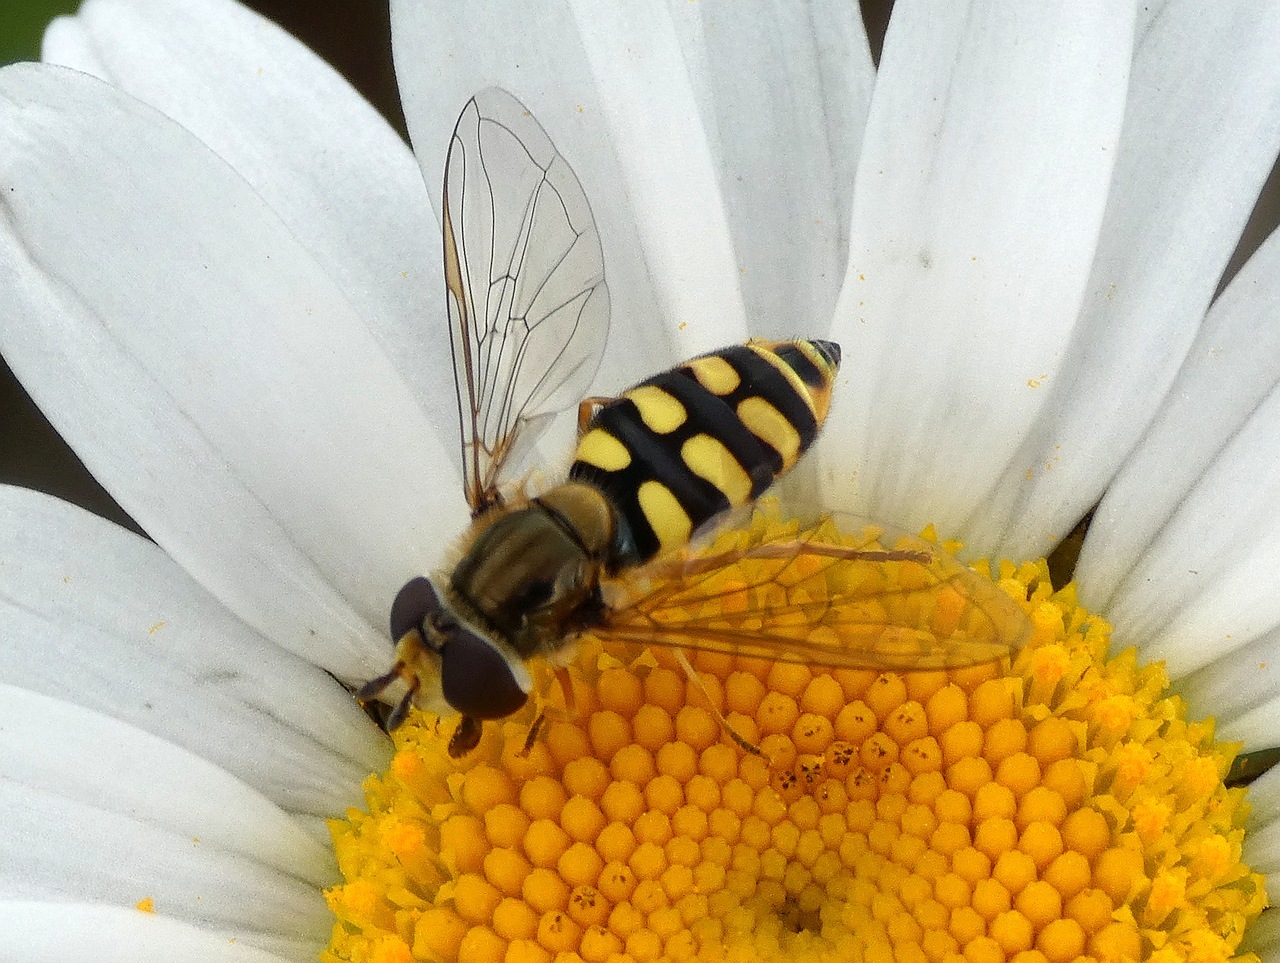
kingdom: Animalia
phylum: Arthropoda
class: Insecta
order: Diptera
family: Syrphidae
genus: Eupeodes
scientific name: Eupeodes corollae
